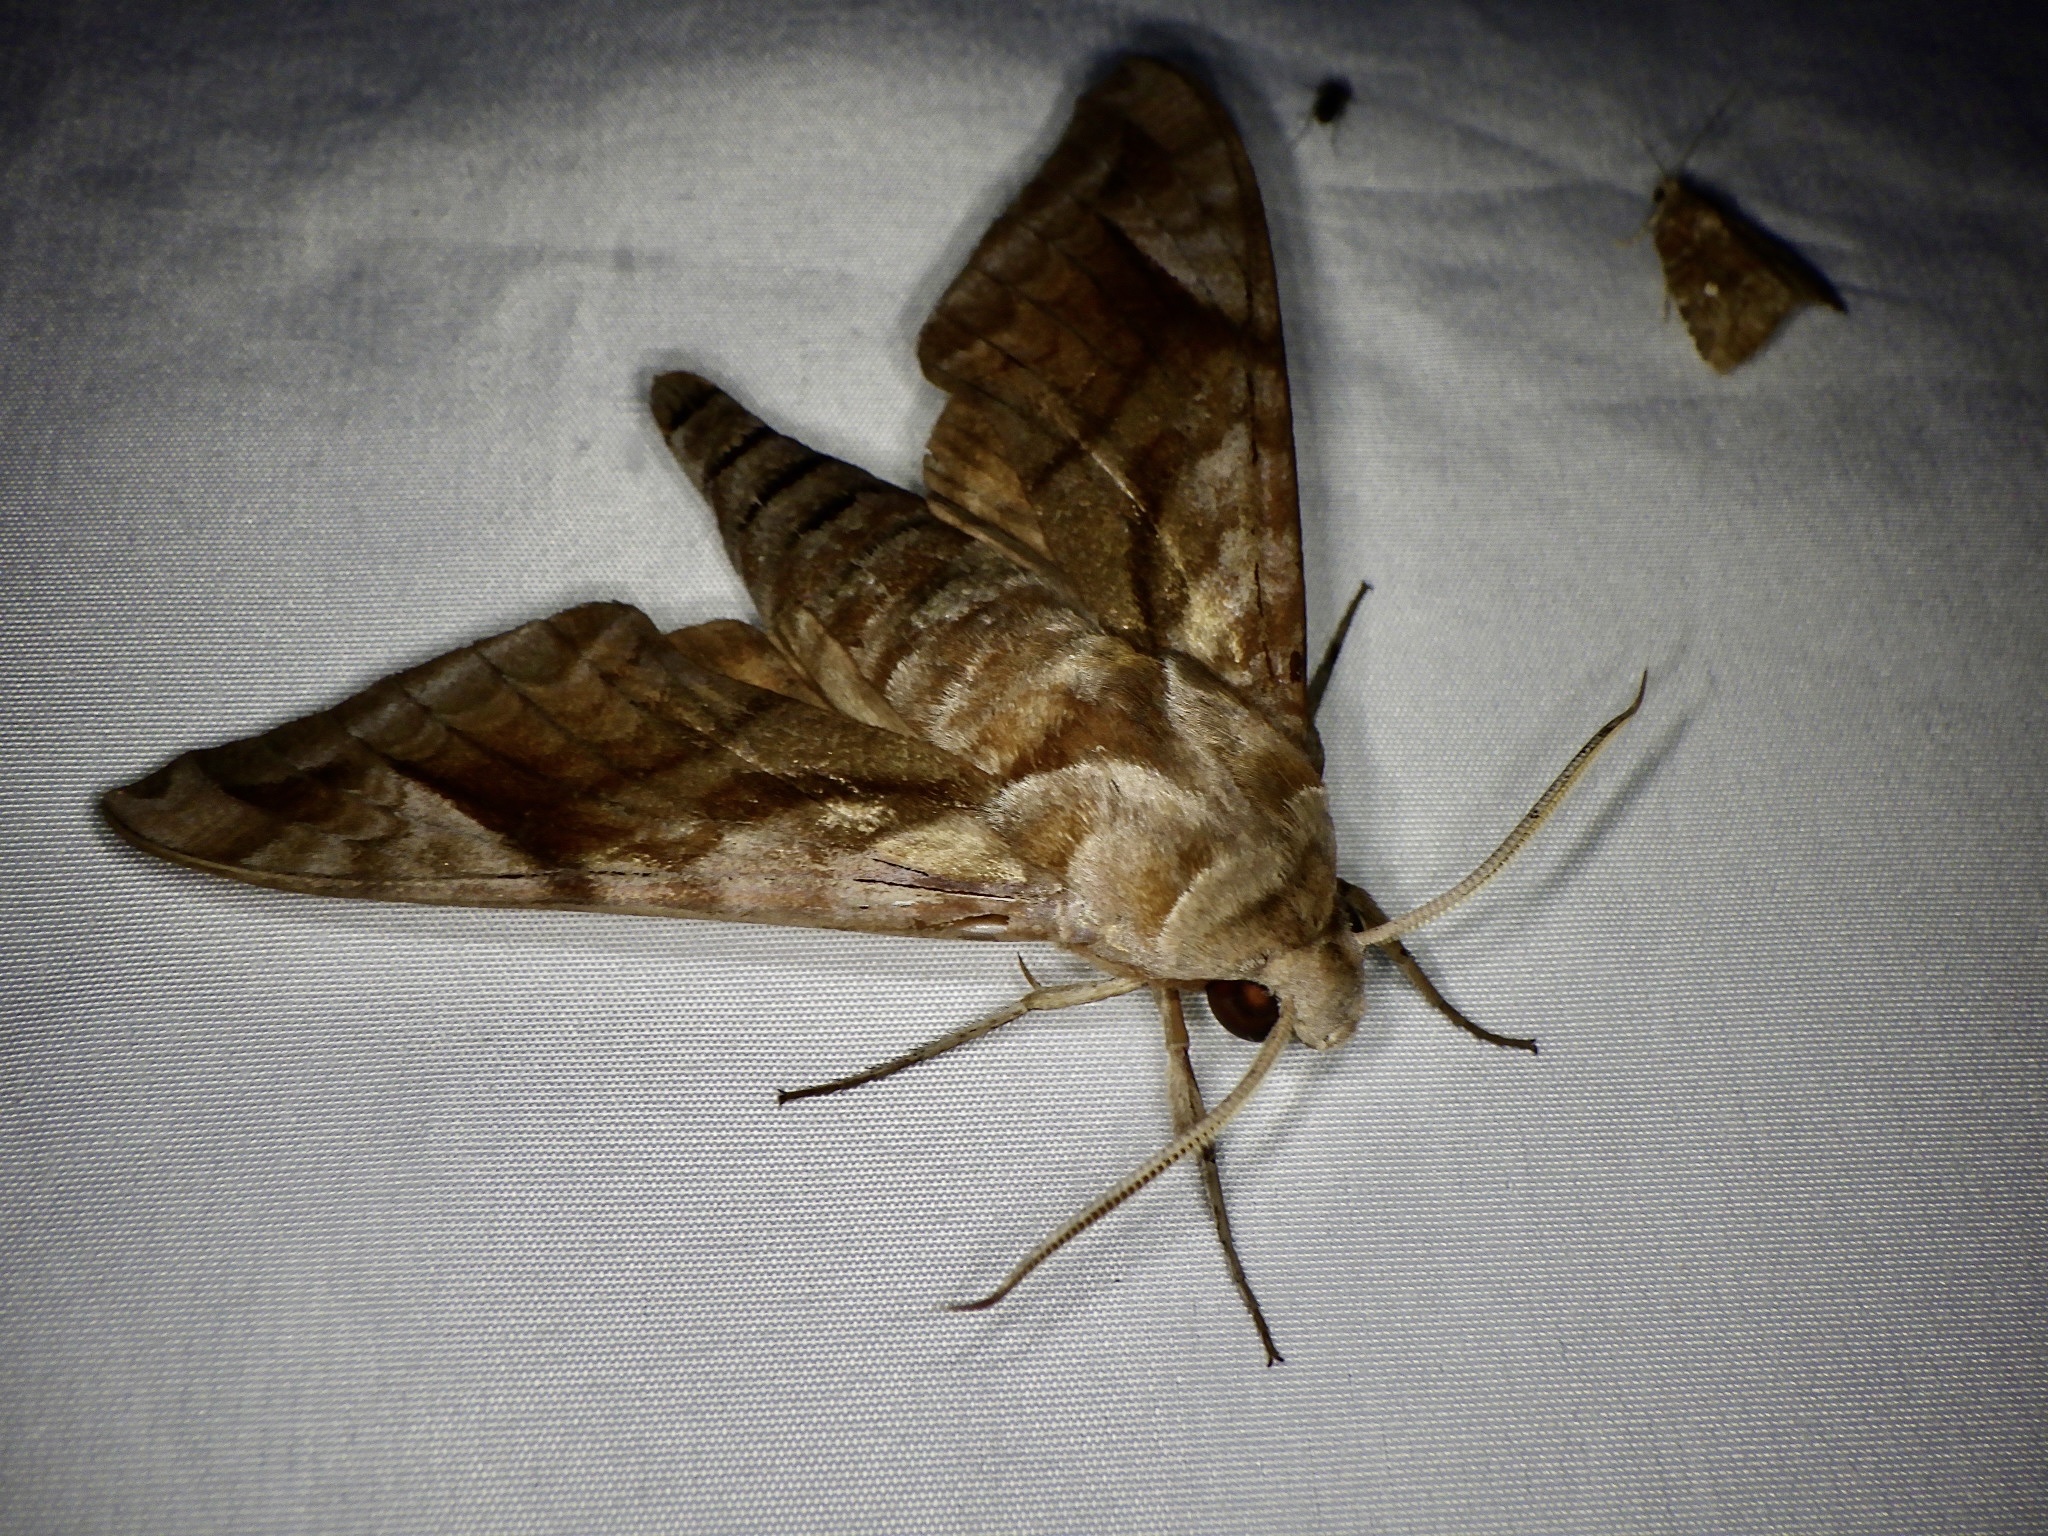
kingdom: Animalia
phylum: Arthropoda
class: Insecta
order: Lepidoptera
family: Sphingidae
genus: Acosmeryx
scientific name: Acosmeryx naga
